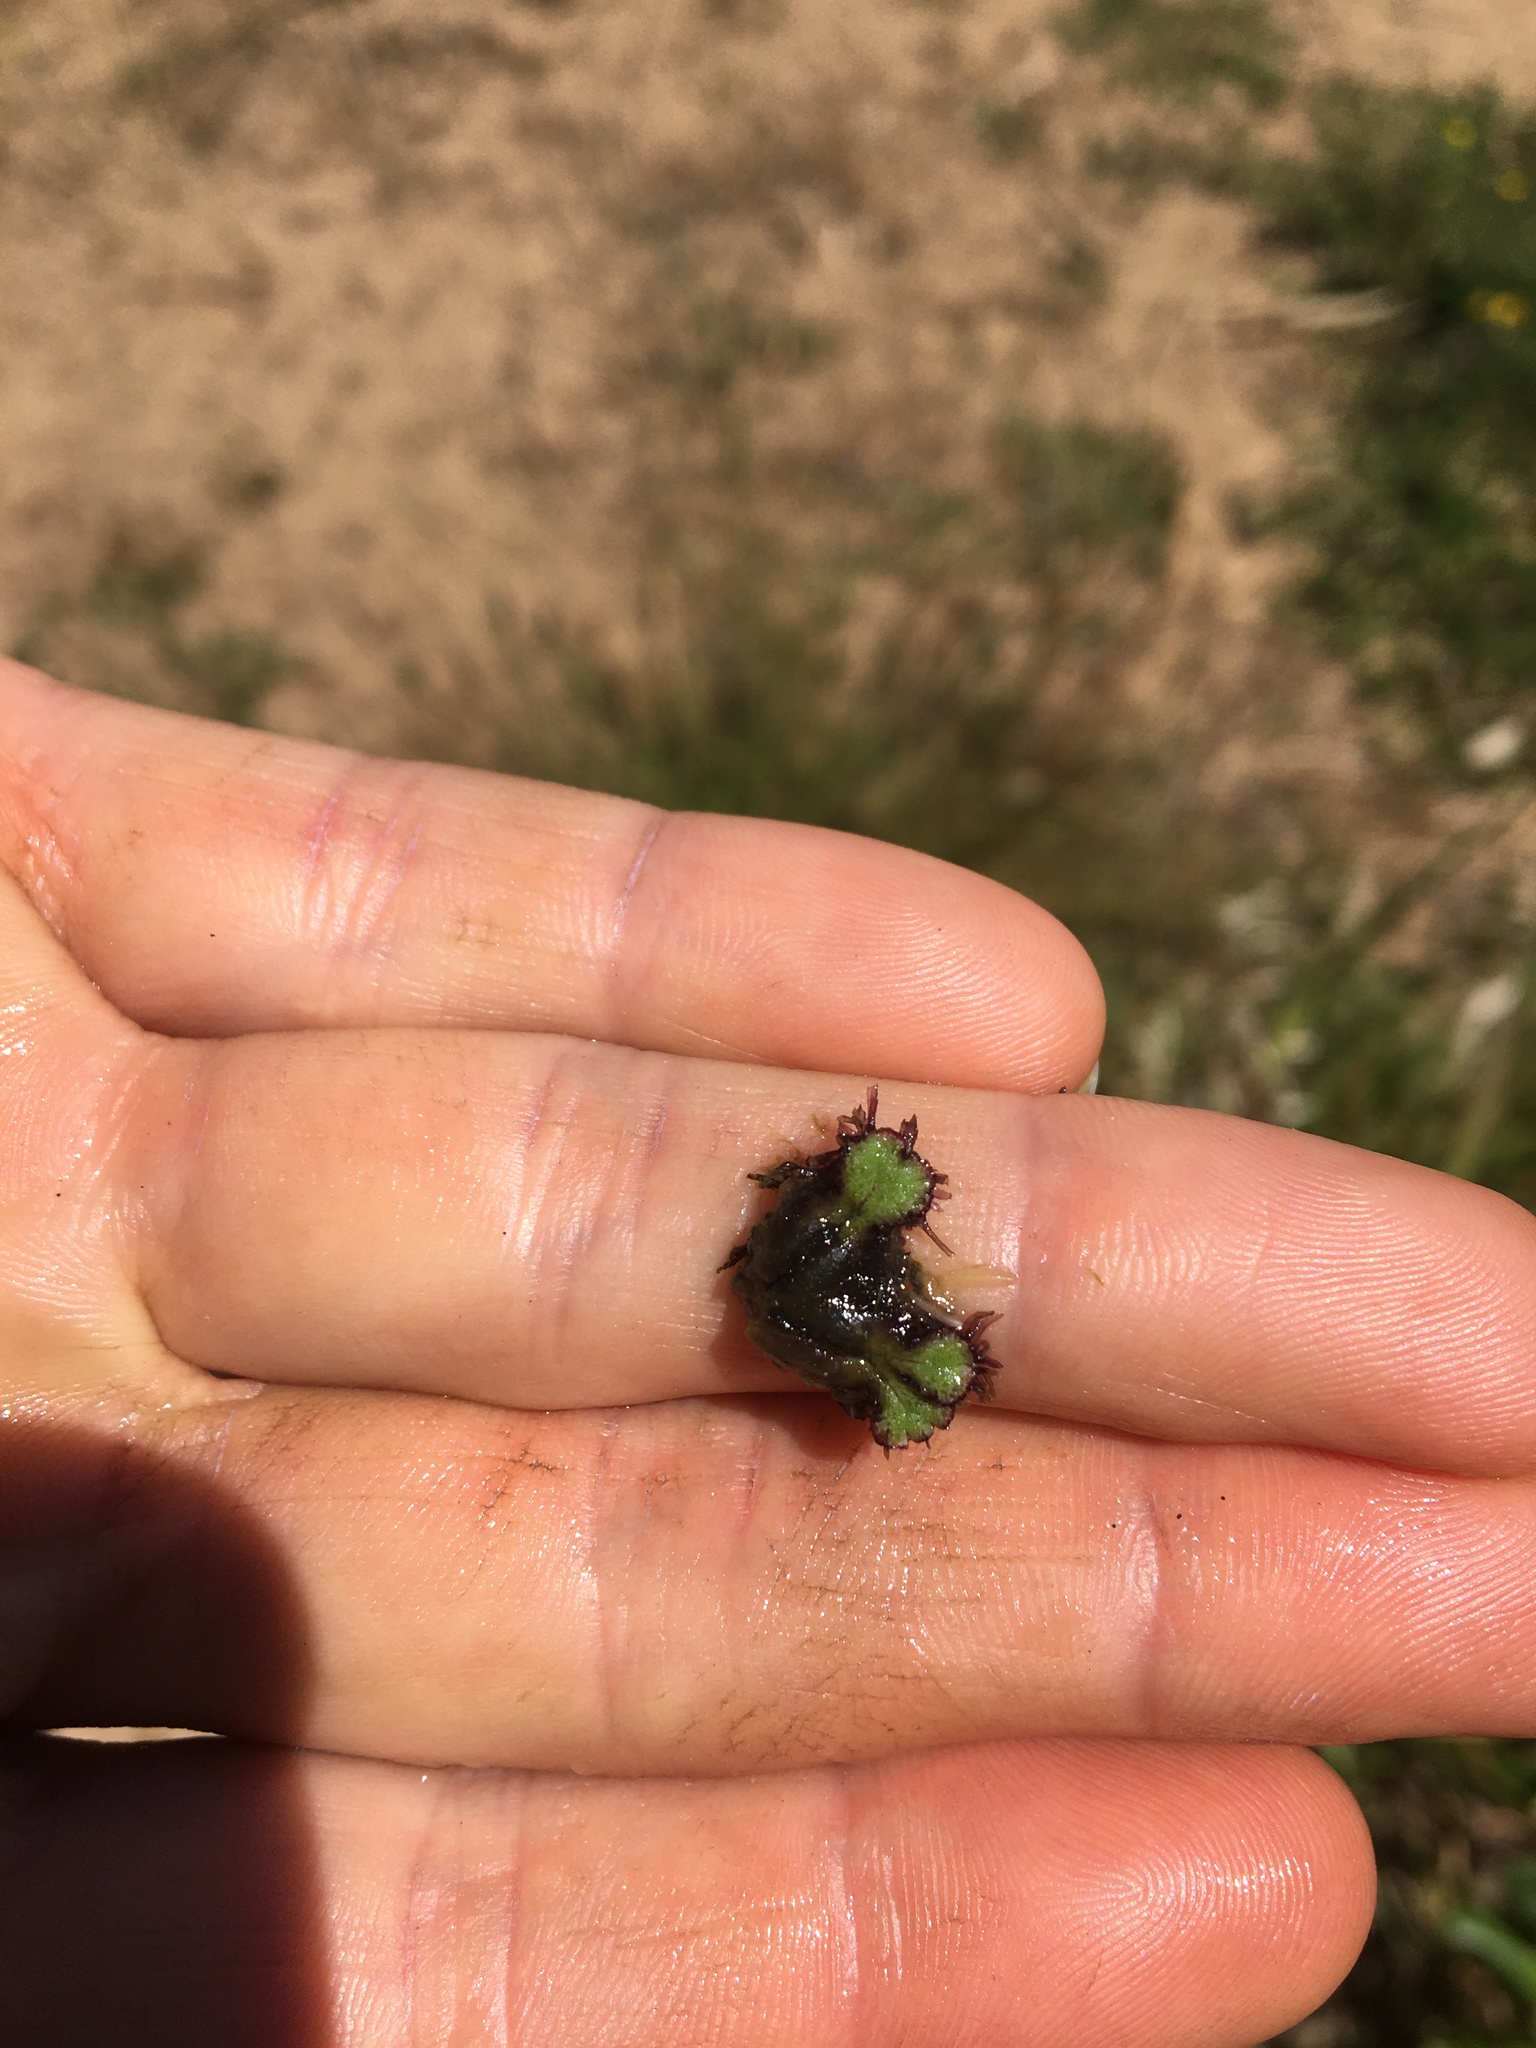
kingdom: Plantae
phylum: Marchantiophyta
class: Marchantiopsida
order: Marchantiales
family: Ricciaceae
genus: Ricciocarpos
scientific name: Ricciocarpos natans
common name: Purple-fringed liverwort
